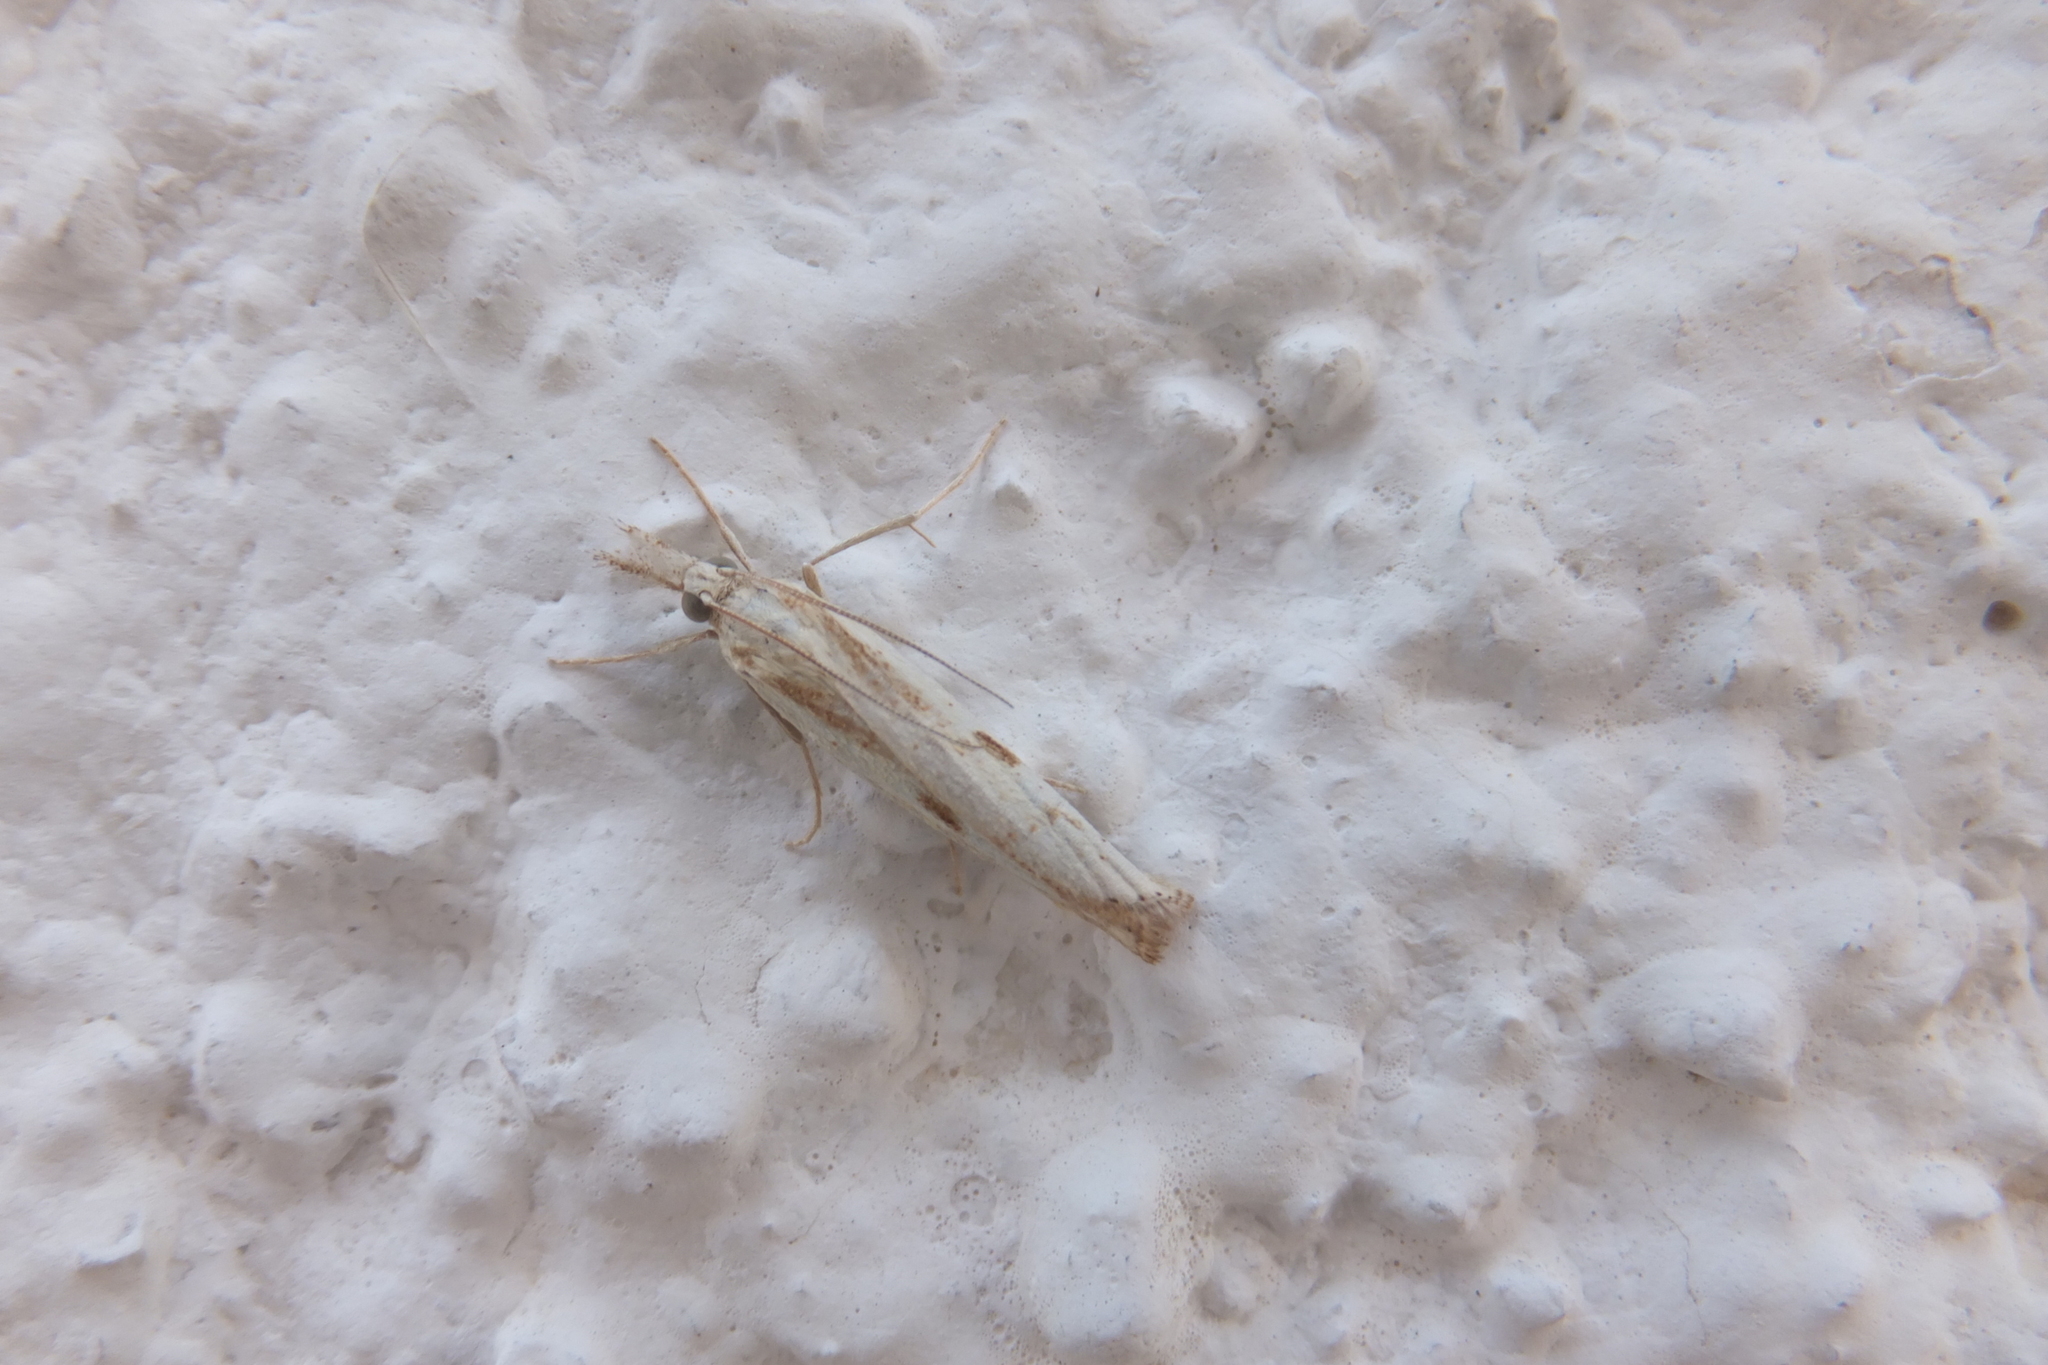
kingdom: Animalia
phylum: Arthropoda
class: Insecta
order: Lepidoptera
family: Crambidae
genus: Agriphila
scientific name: Agriphila inquinatella
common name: Barred grass-veneer
